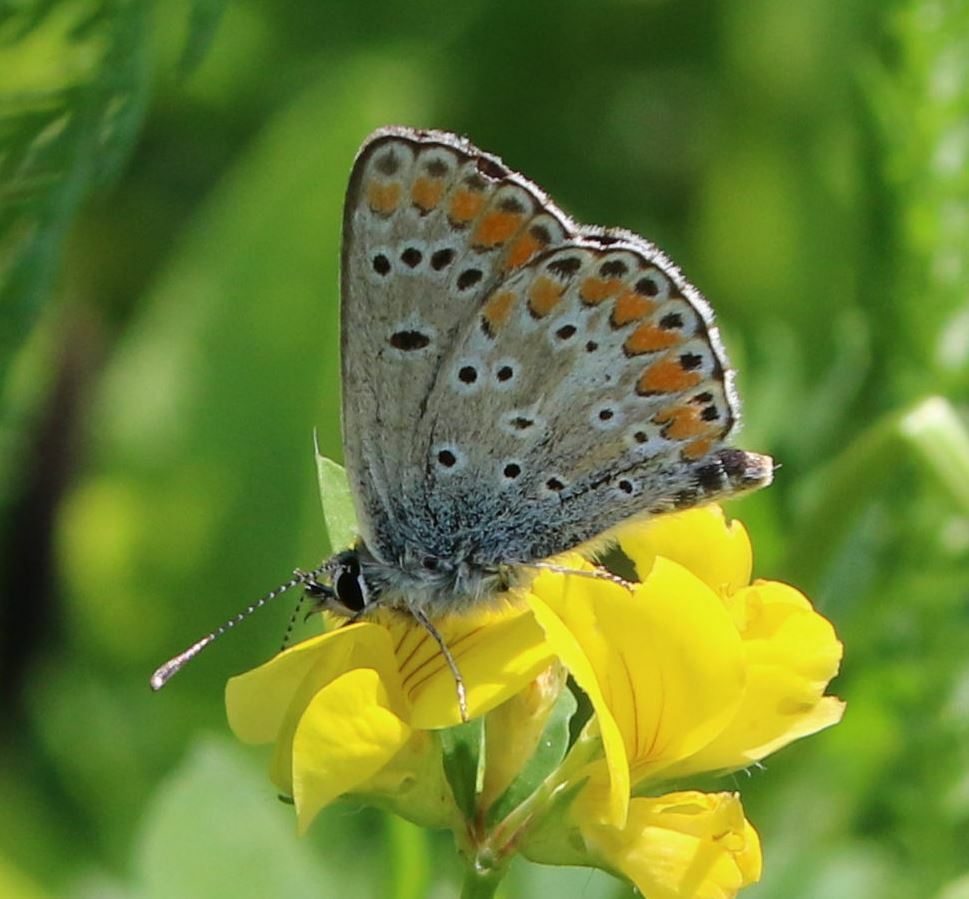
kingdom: Animalia
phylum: Arthropoda
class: Insecta
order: Lepidoptera
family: Lycaenidae
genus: Aricia
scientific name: Aricia agestis
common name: Brown argus
